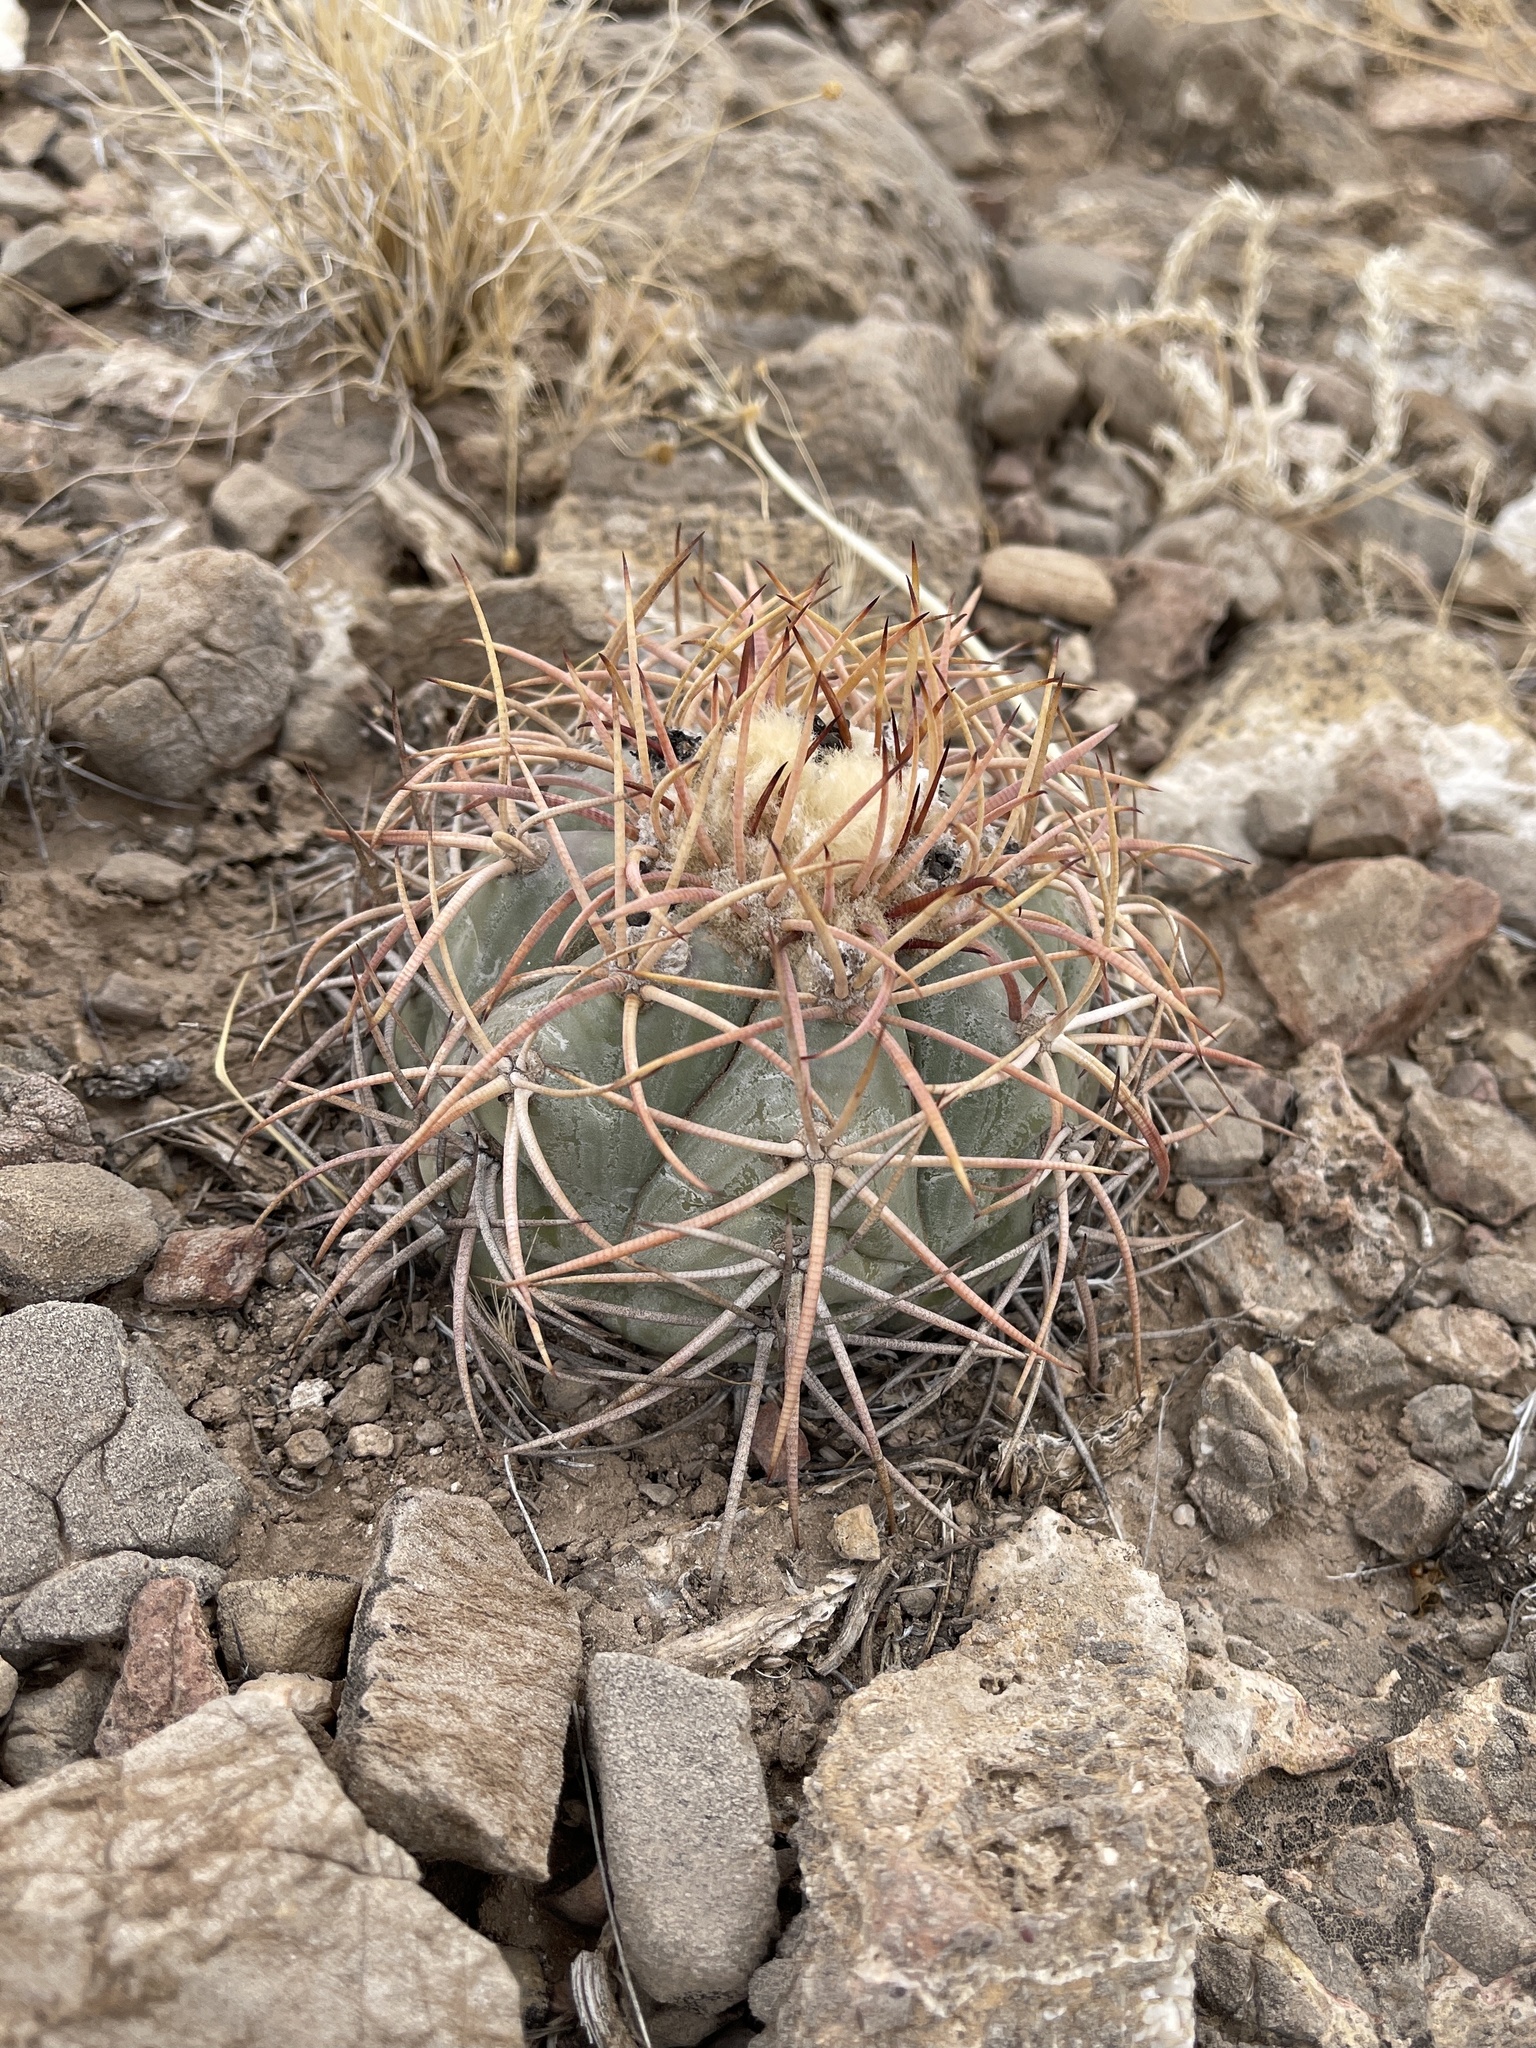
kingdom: Plantae
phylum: Tracheophyta
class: Magnoliopsida
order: Caryophyllales
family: Cactaceae
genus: Echinocactus
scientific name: Echinocactus horizonthalonius
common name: Devilshead
